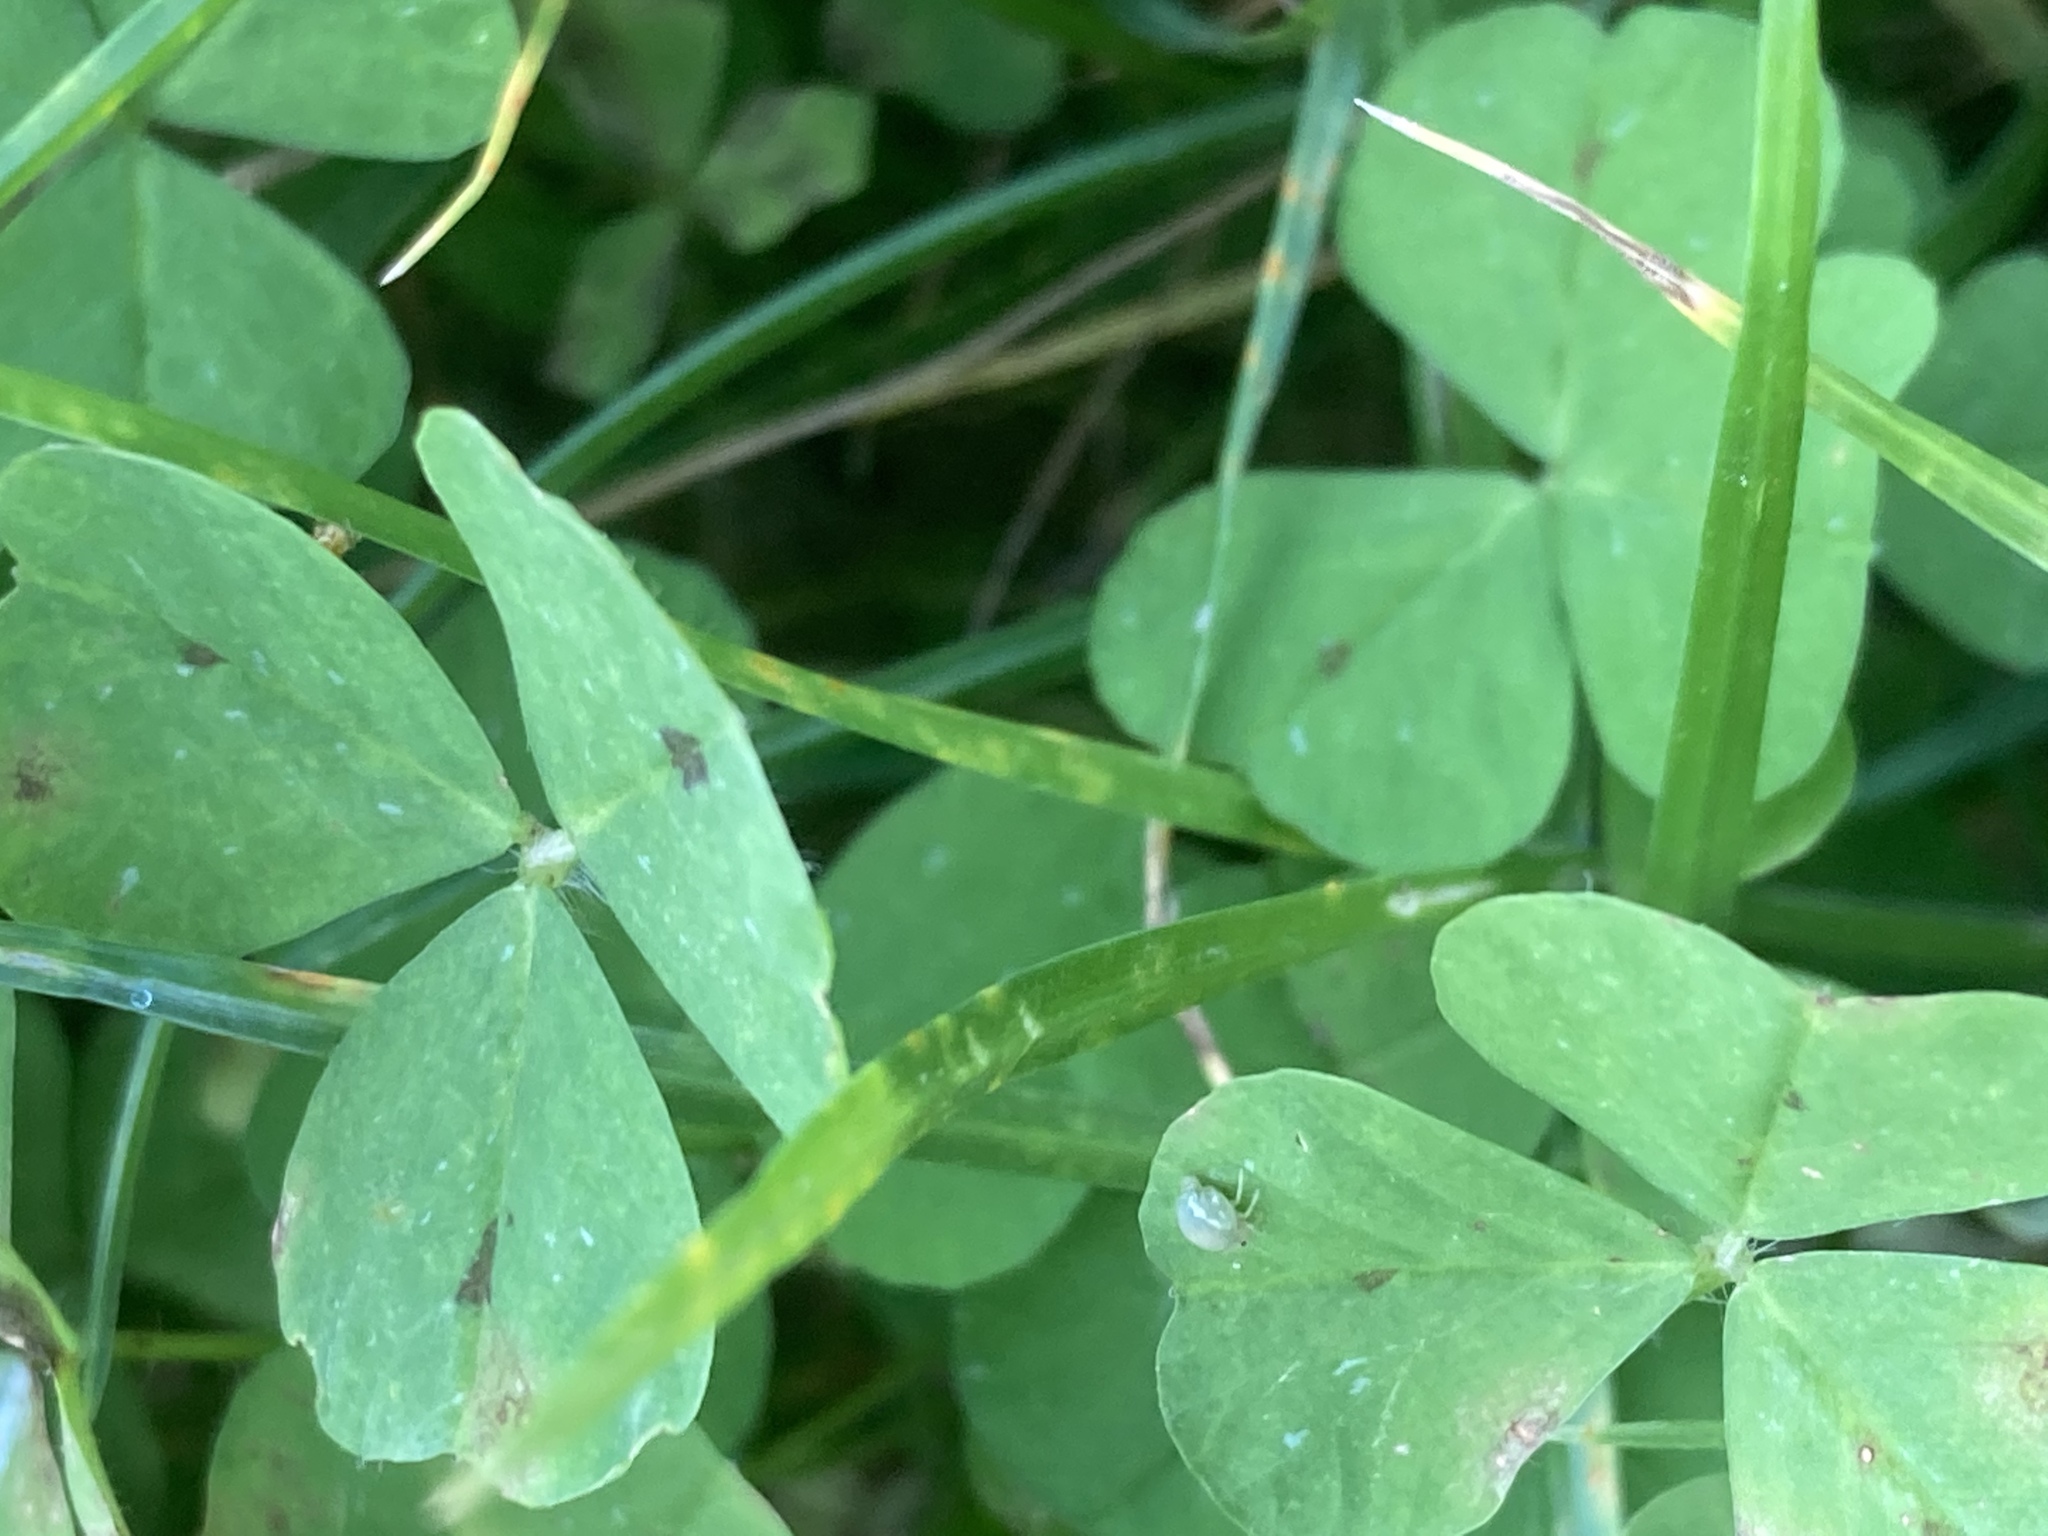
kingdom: Plantae
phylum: Tracheophyta
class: Magnoliopsida
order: Fabales
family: Fabaceae
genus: Medicago
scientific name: Medicago arabica
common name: Spotted medick
